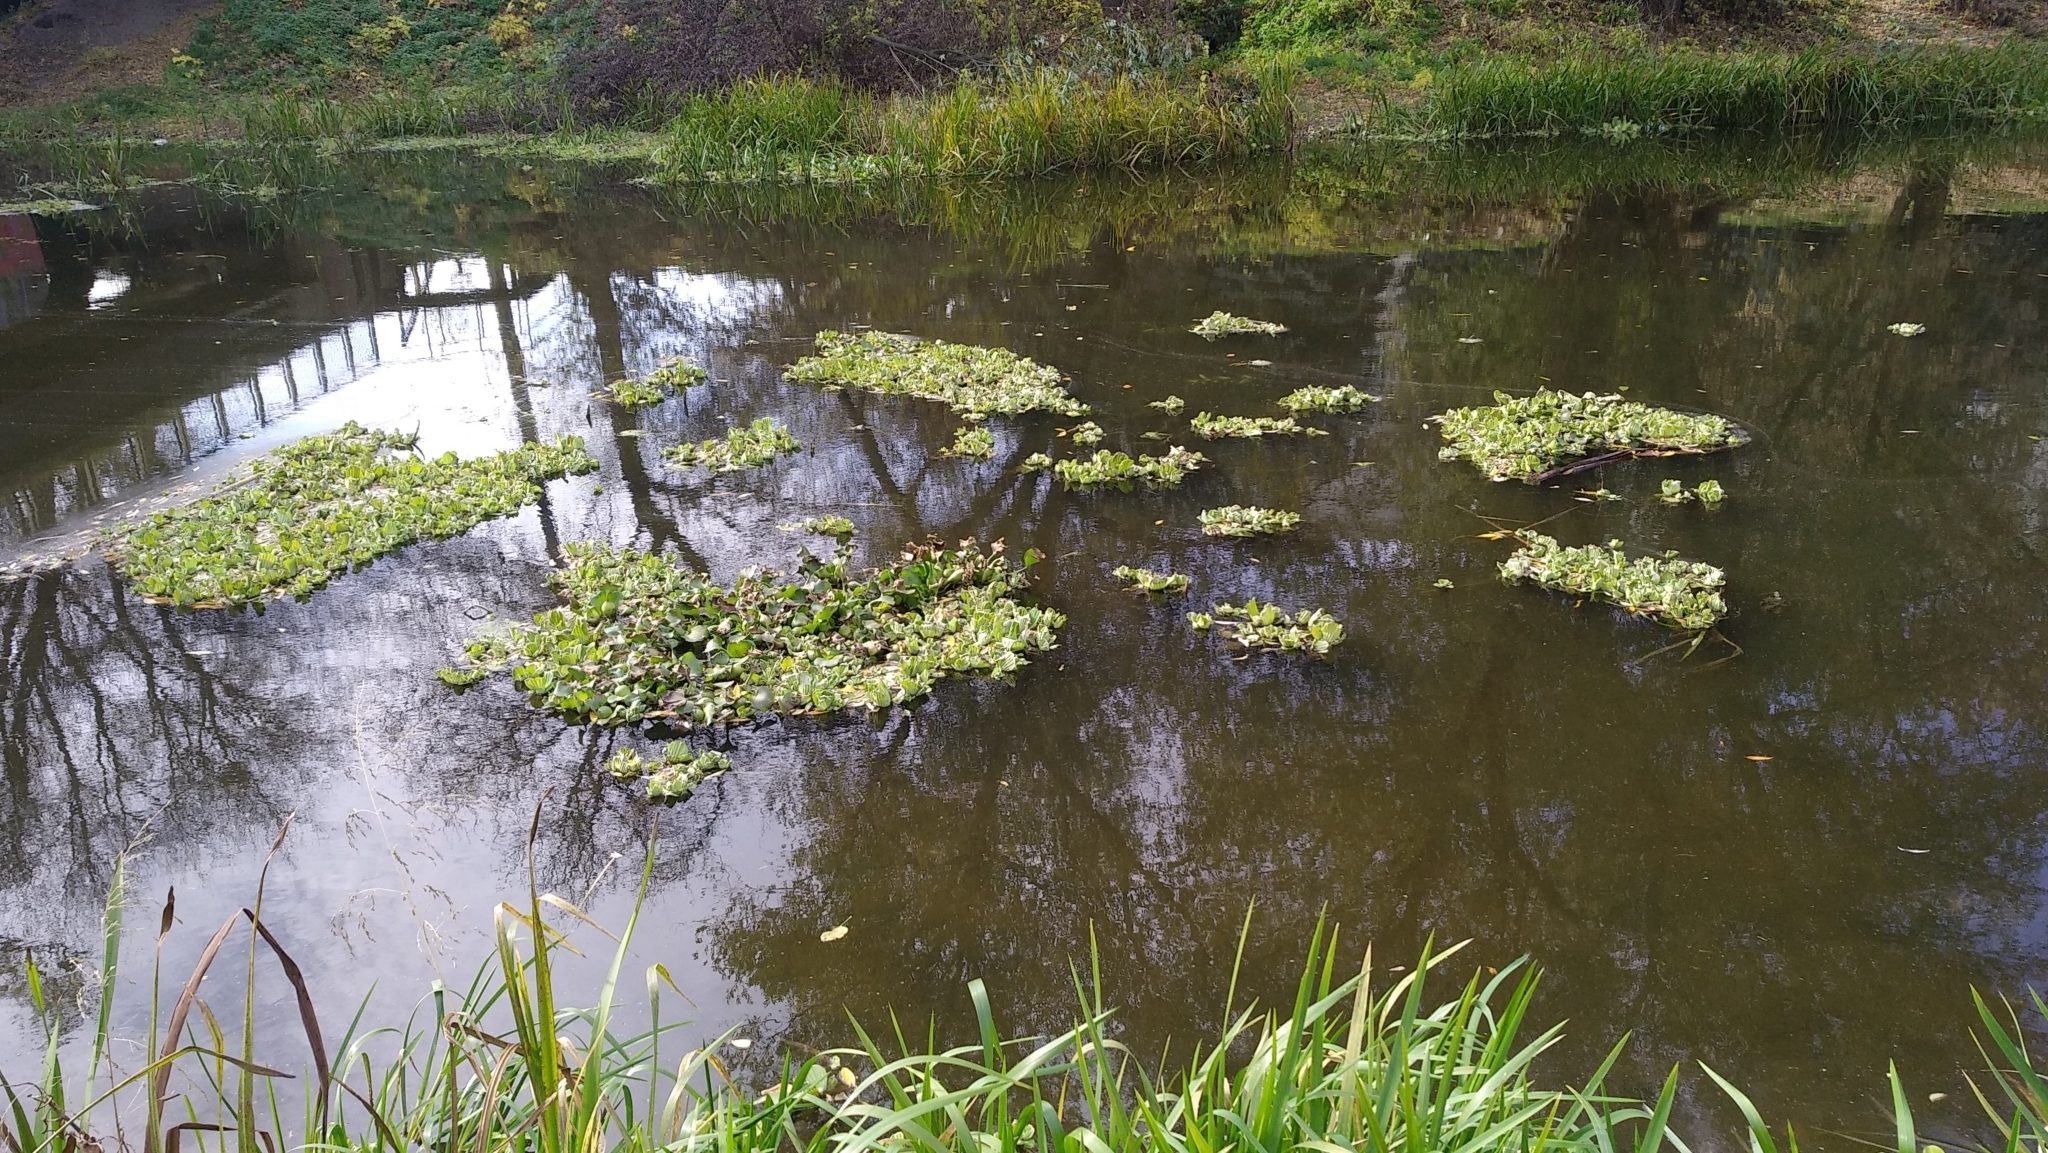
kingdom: Plantae
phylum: Tracheophyta
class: Liliopsida
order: Alismatales
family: Araceae
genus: Pistia
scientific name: Pistia stratiotes
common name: Water lettuce
